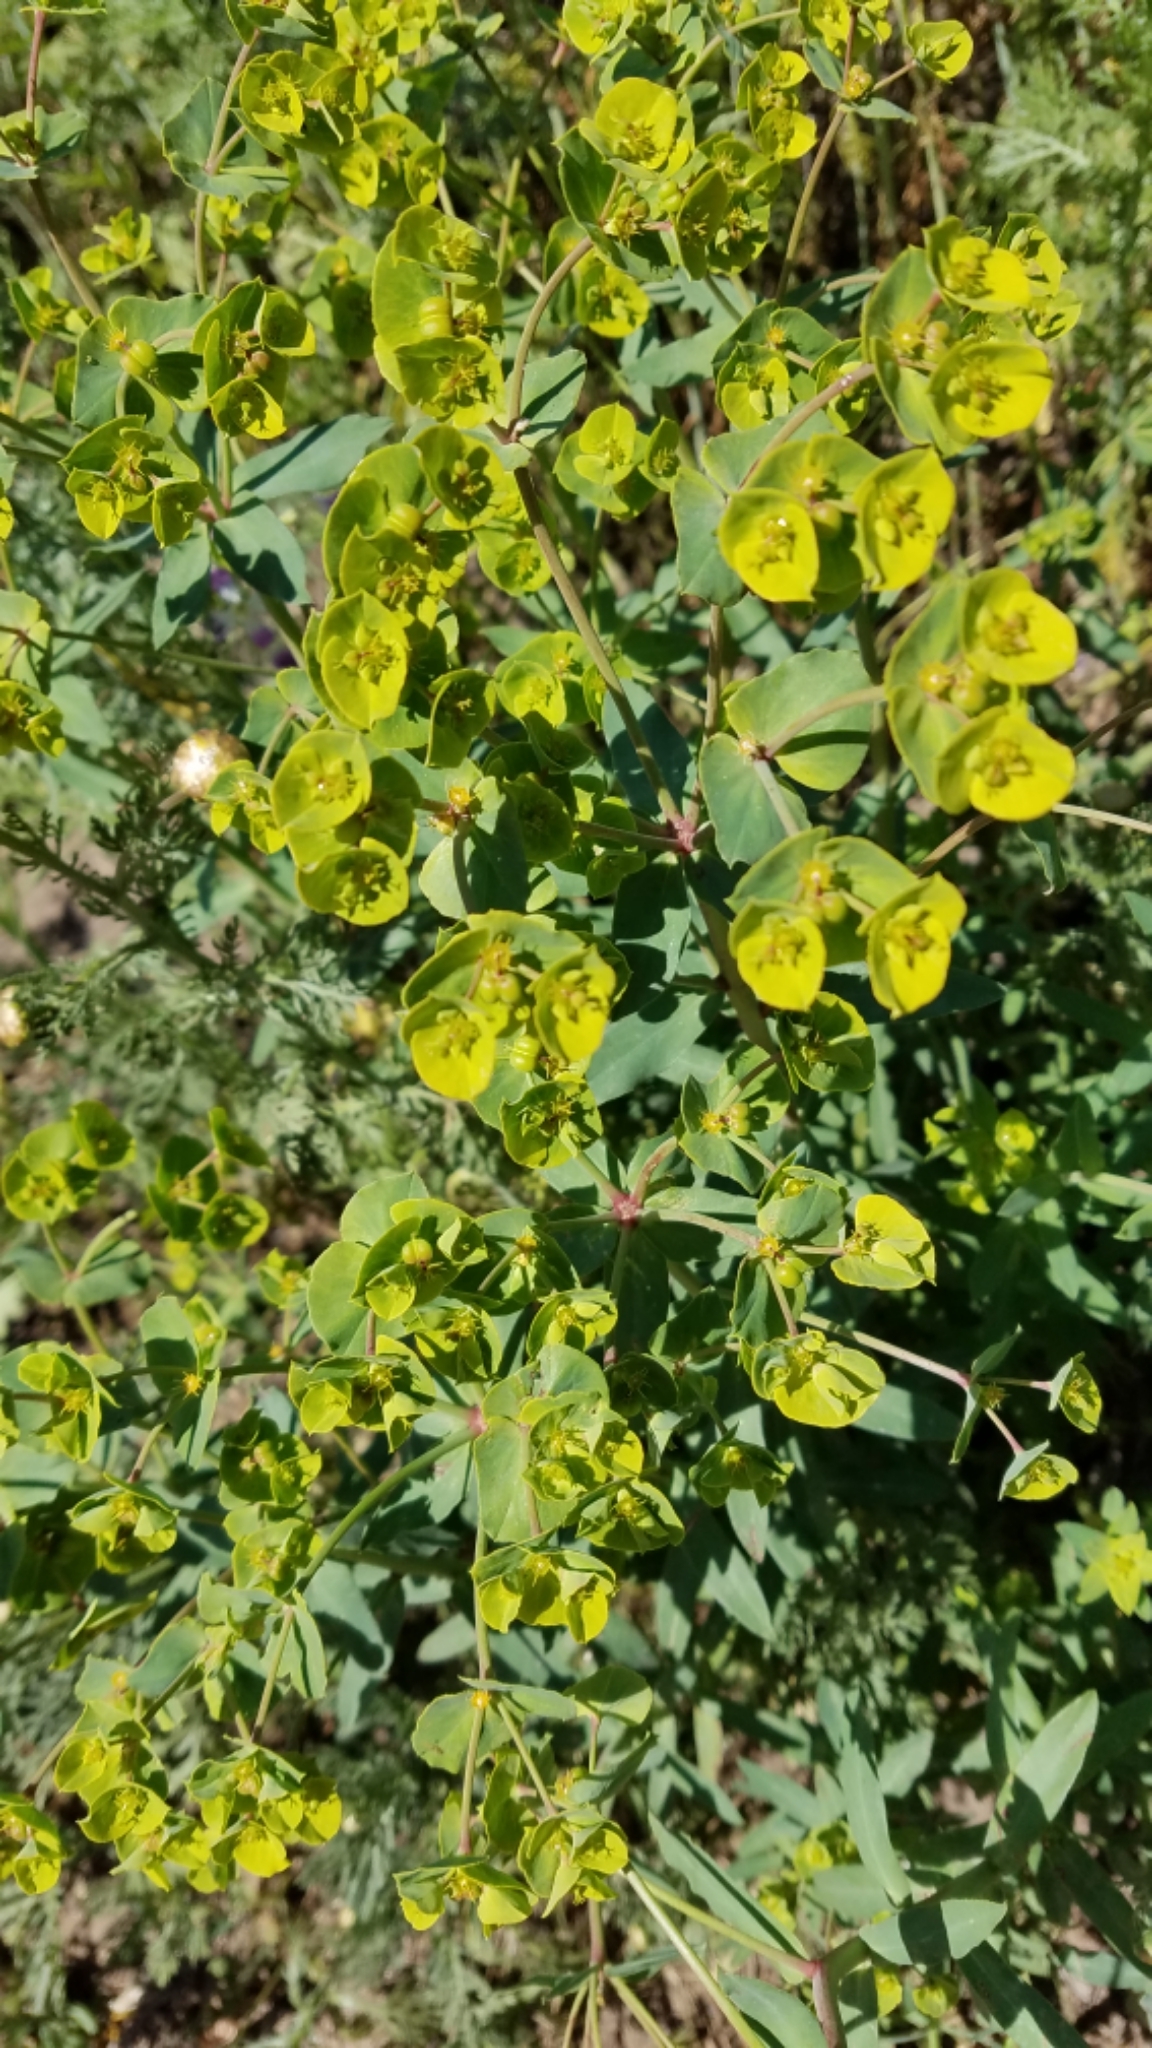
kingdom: Plantae
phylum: Tracheophyta
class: Magnoliopsida
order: Malpighiales
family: Euphorbiaceae
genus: Euphorbia
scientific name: Euphorbia terracina
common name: Geraldton carnation weed
